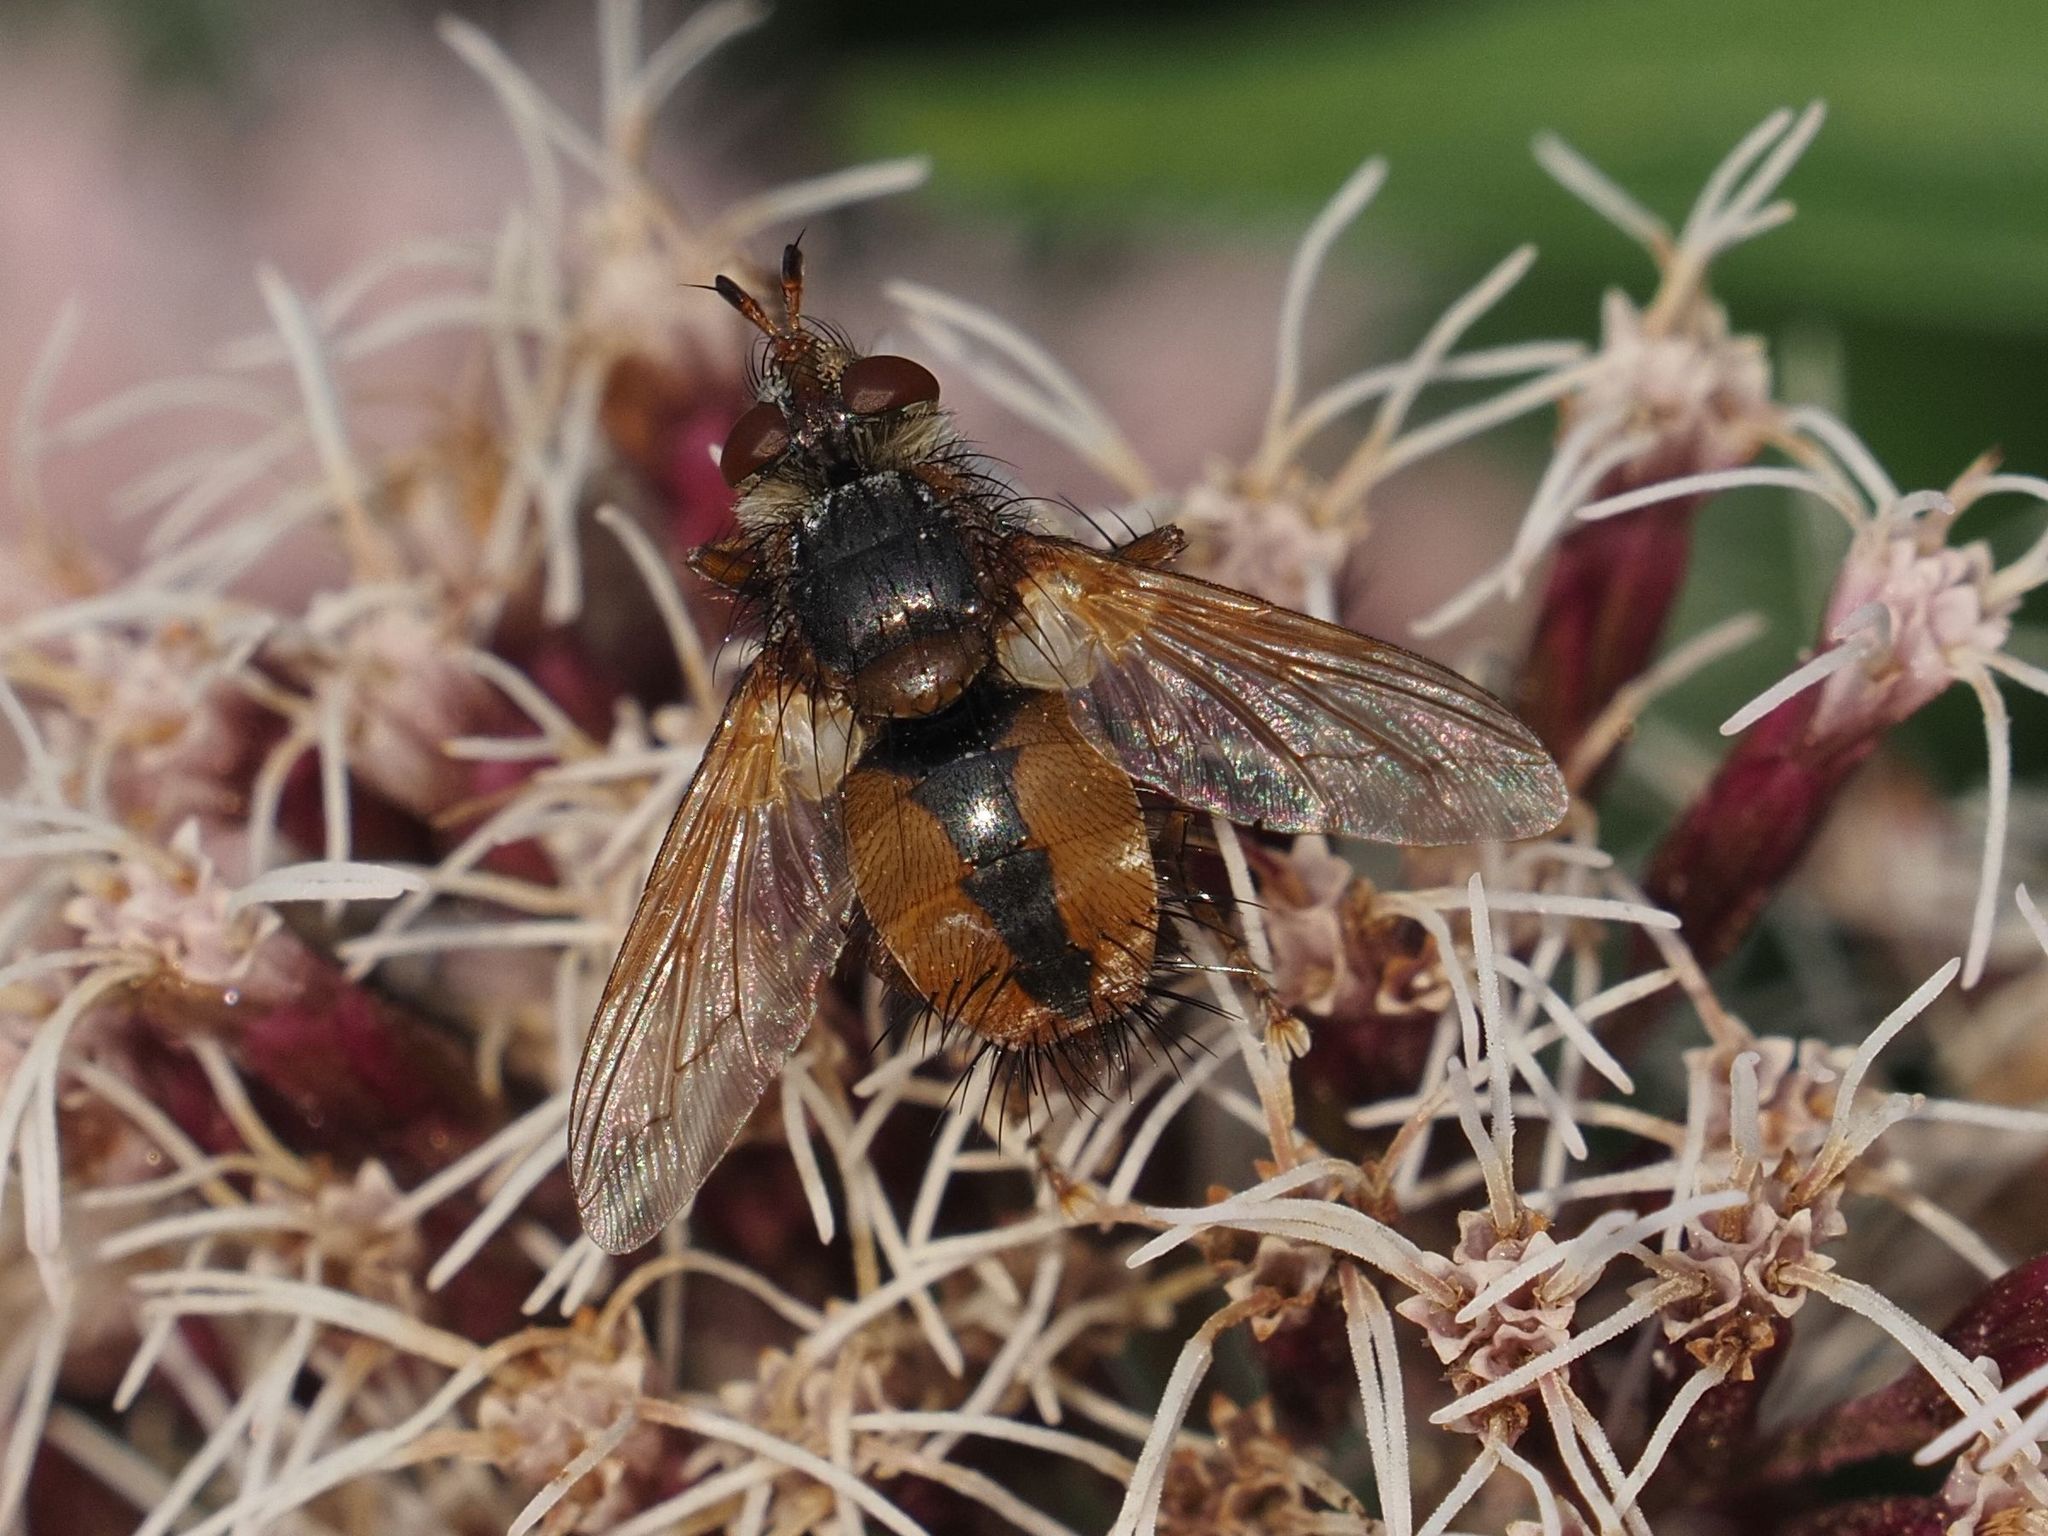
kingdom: Animalia
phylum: Arthropoda
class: Insecta
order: Diptera
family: Tachinidae
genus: Tachina
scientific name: Tachina fera
